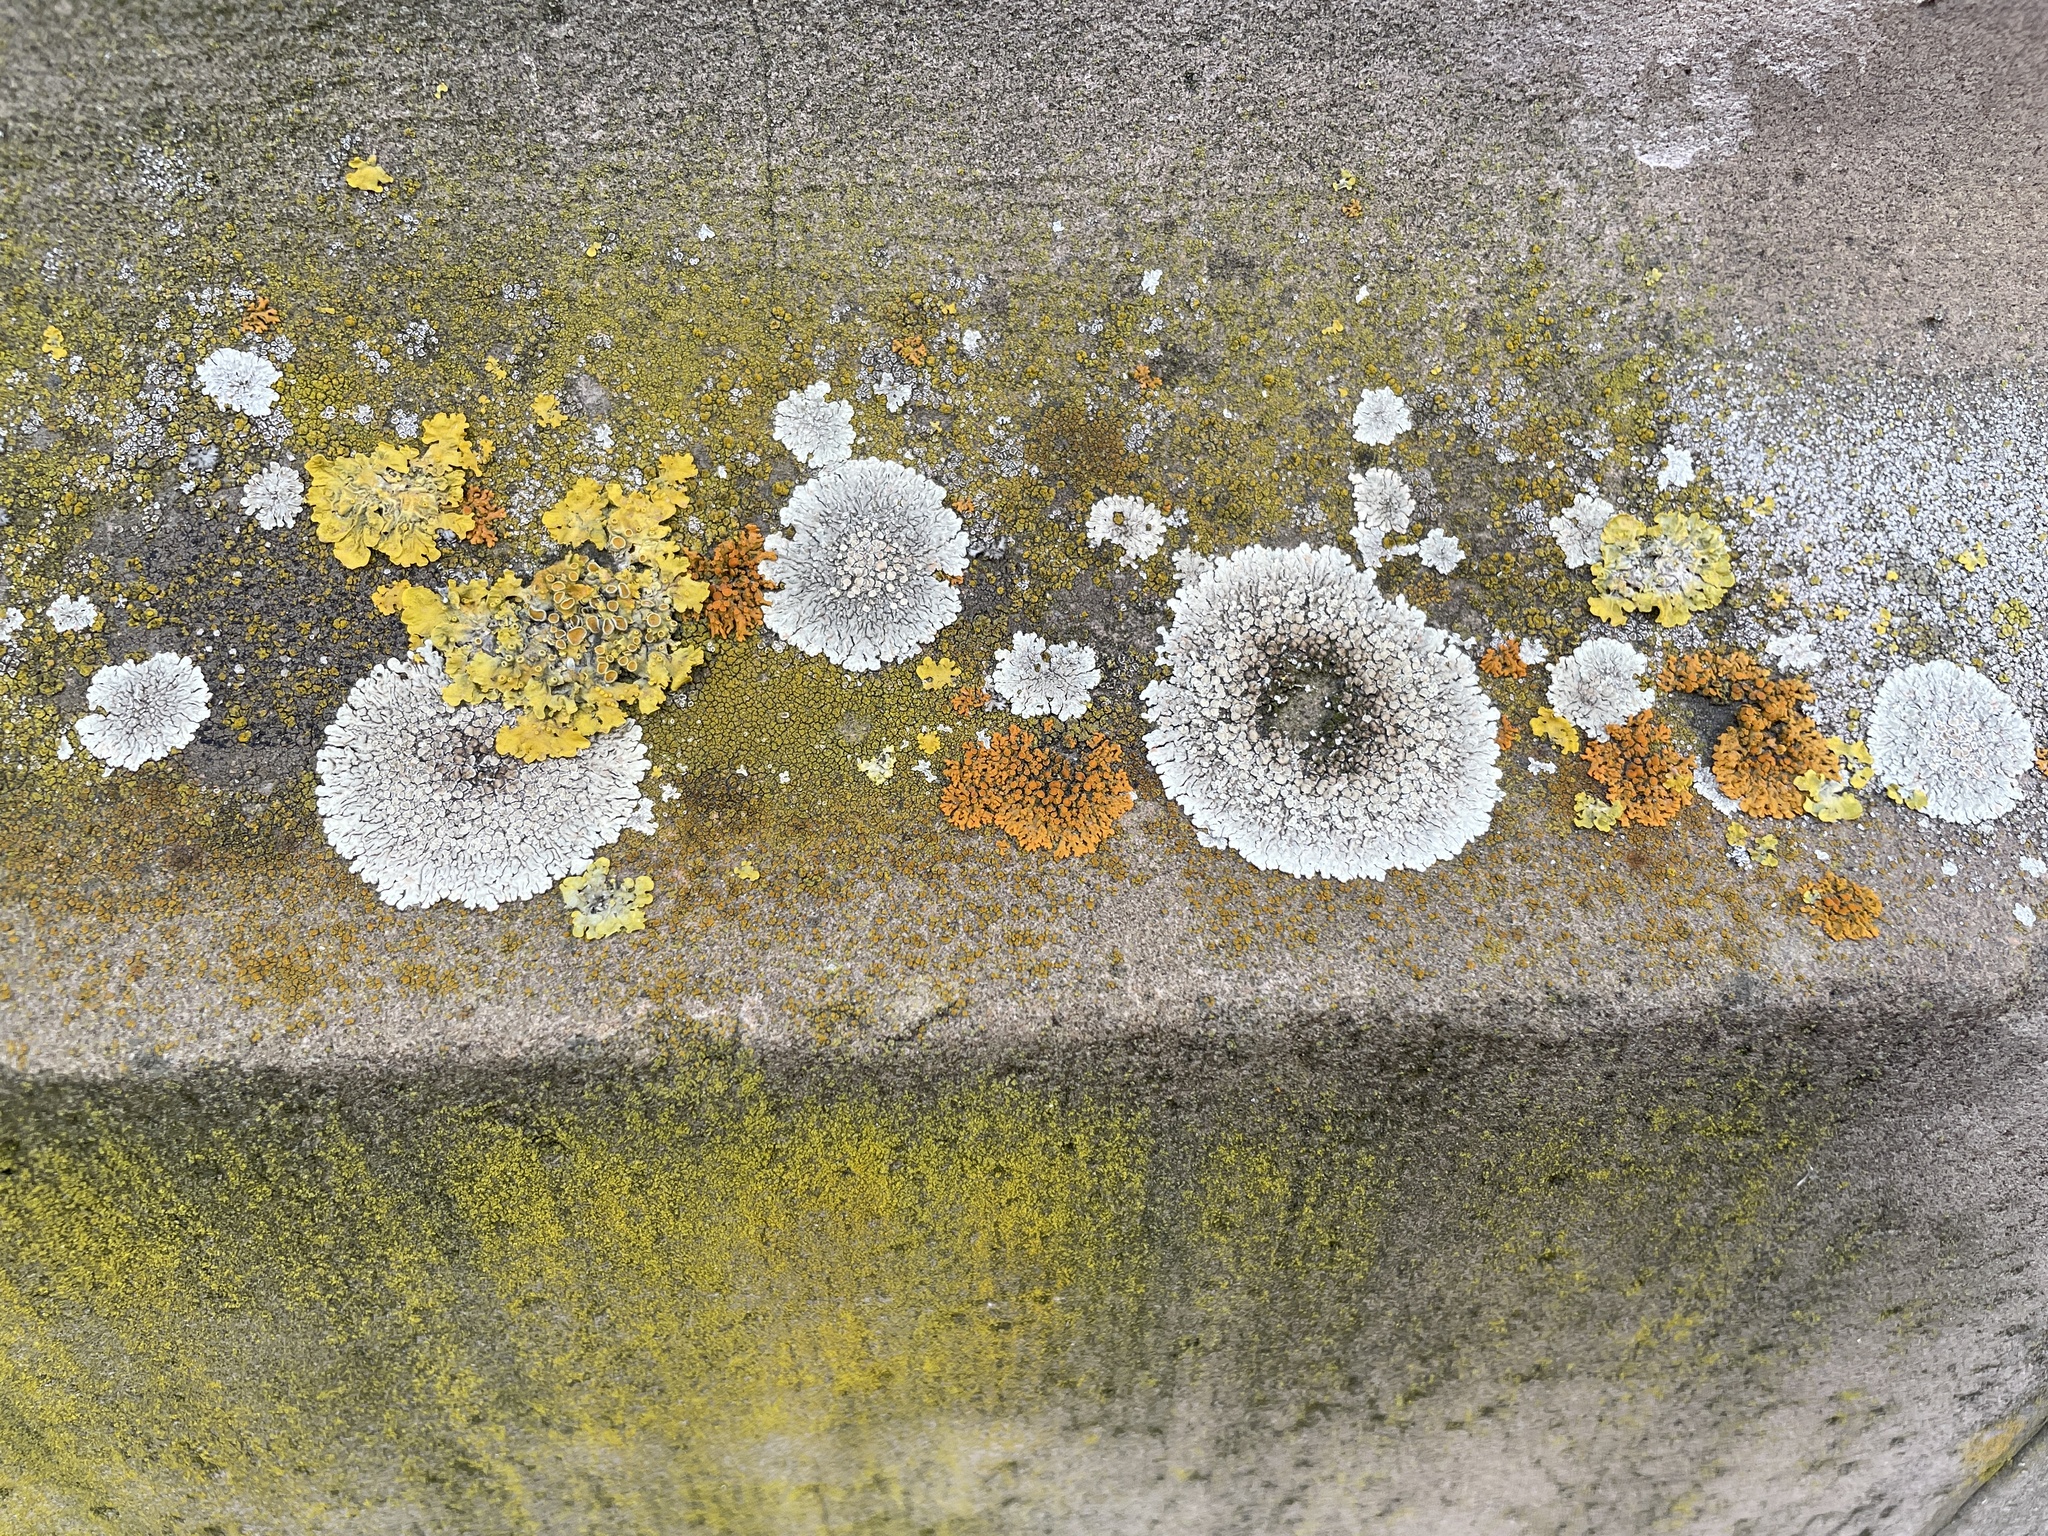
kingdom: Fungi
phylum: Ascomycota
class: Lecanoromycetes
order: Lecanorales
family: Lecanoraceae
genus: Protoparmeliopsis
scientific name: Protoparmeliopsis muralis
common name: Stonewall rim lichen
